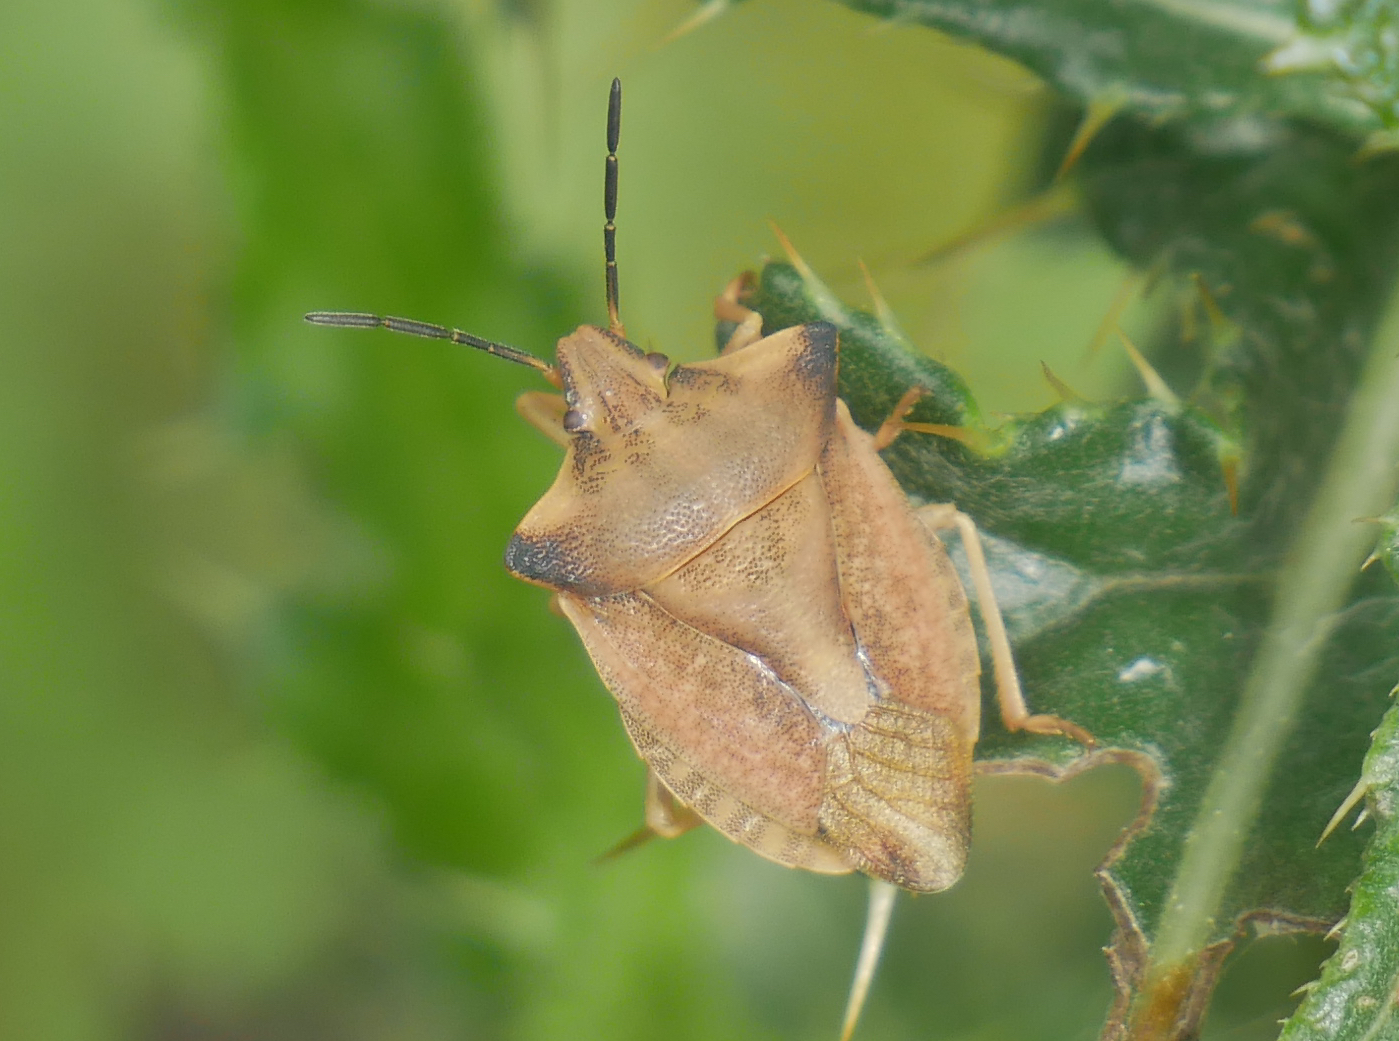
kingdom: Animalia
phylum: Arthropoda
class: Insecta
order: Hemiptera
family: Pentatomidae
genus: Carpocoris
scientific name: Carpocoris fuscispinus
